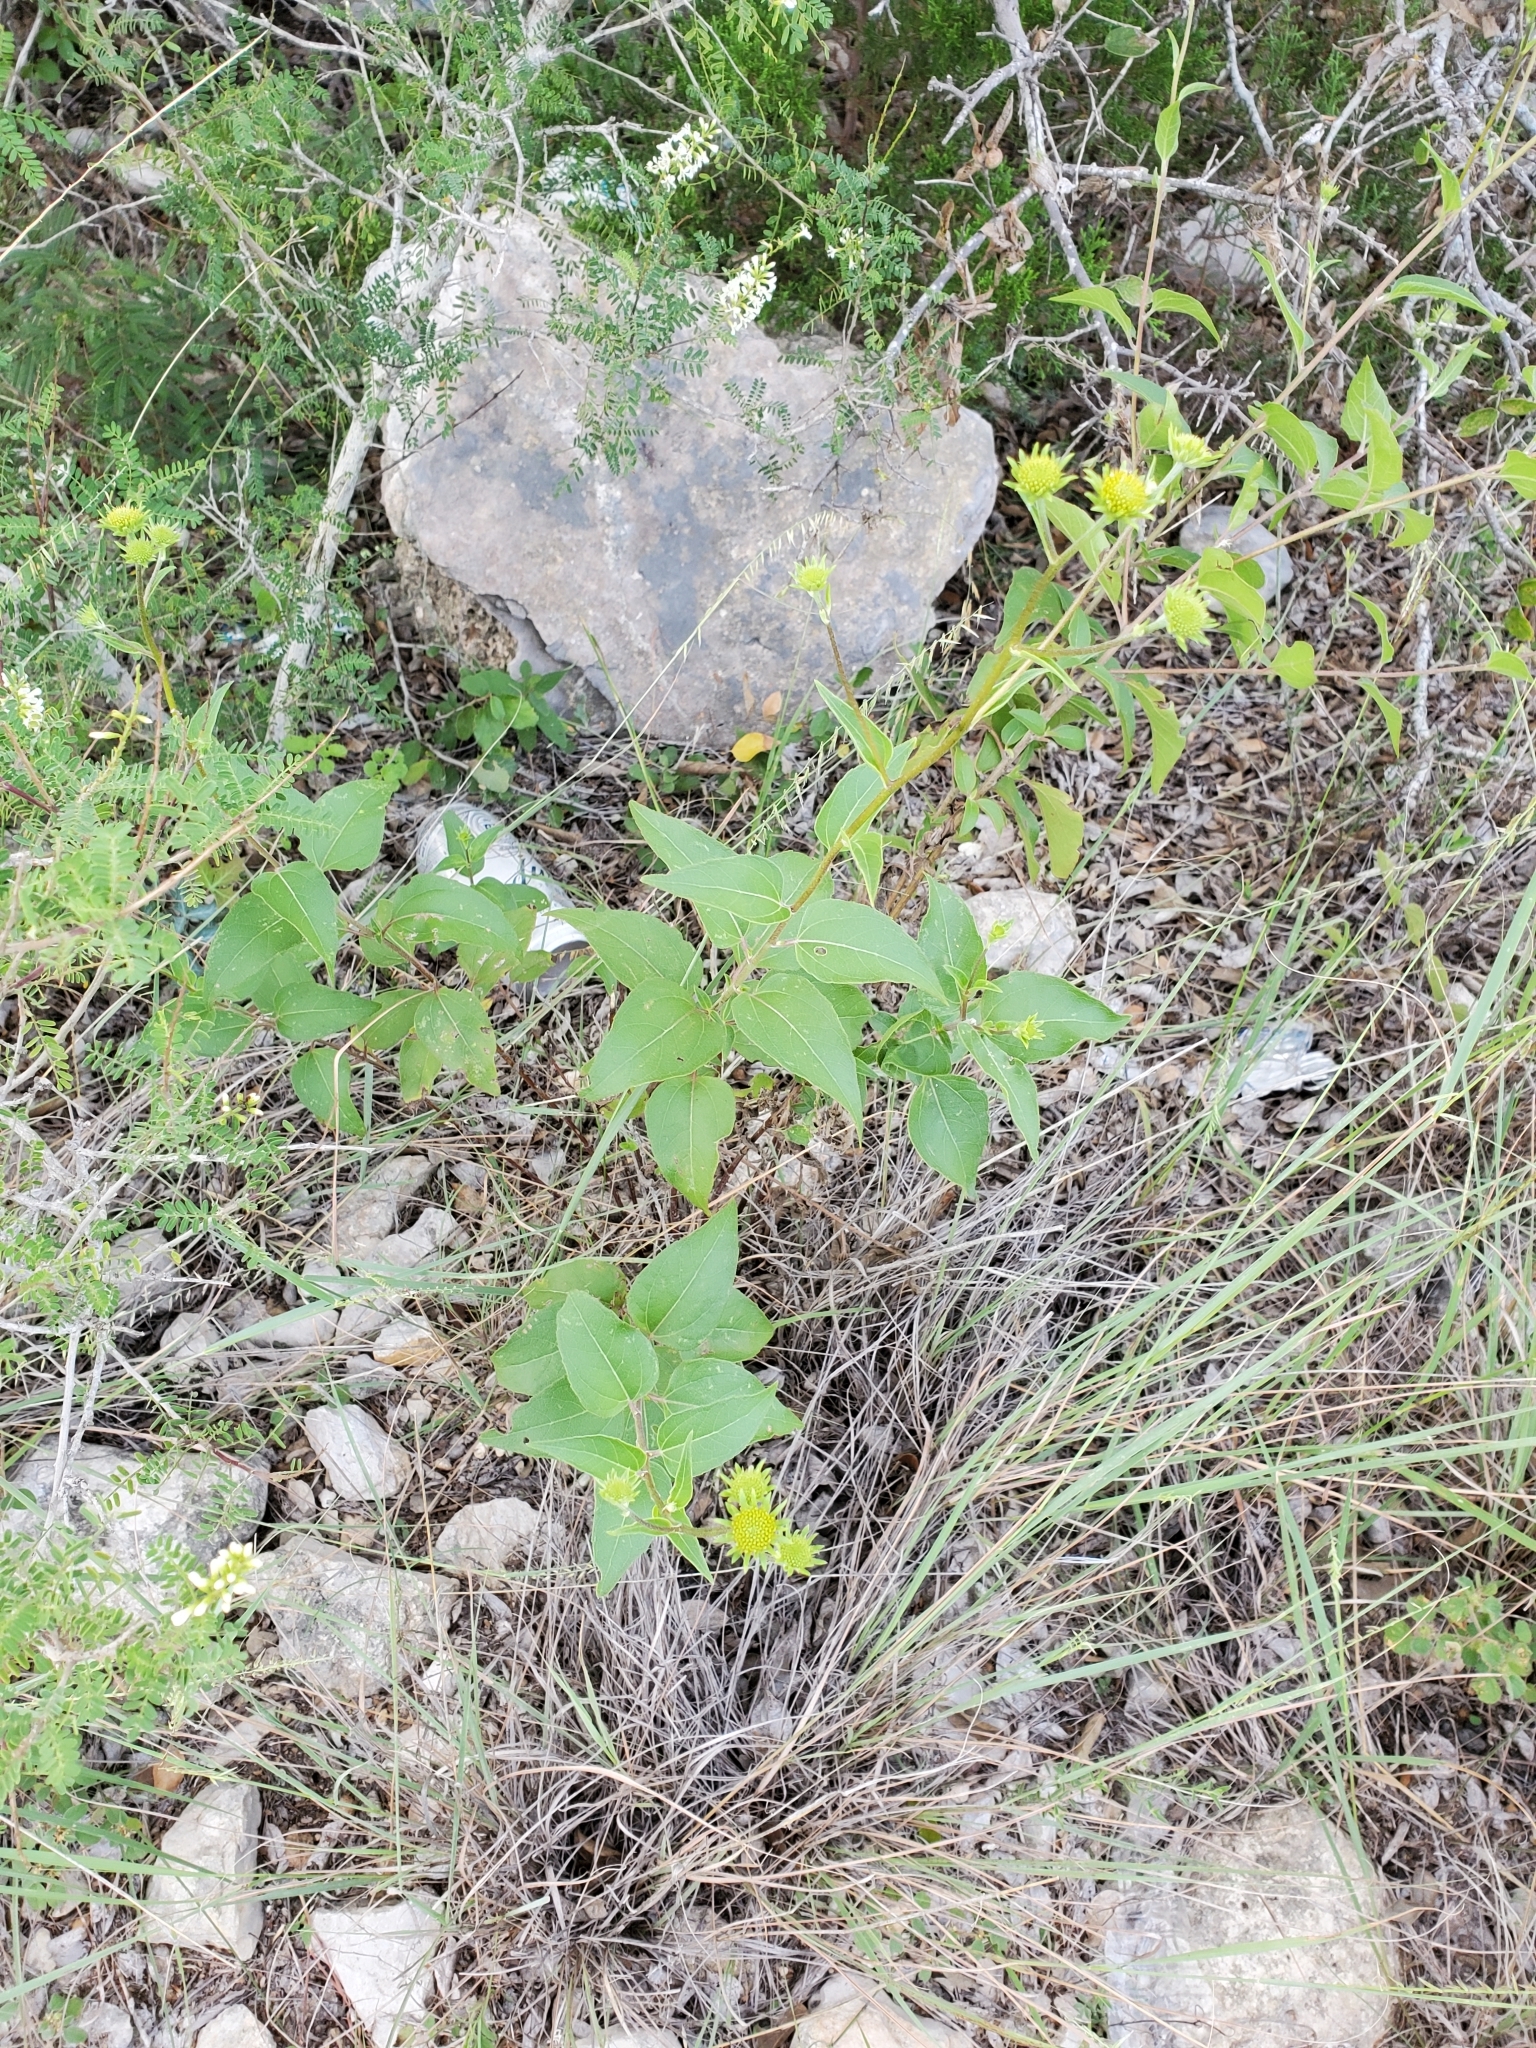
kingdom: Plantae
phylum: Tracheophyta
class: Magnoliopsida
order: Asterales
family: Asteraceae
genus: Viguiera
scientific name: Viguiera dentata
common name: Toothleaf
